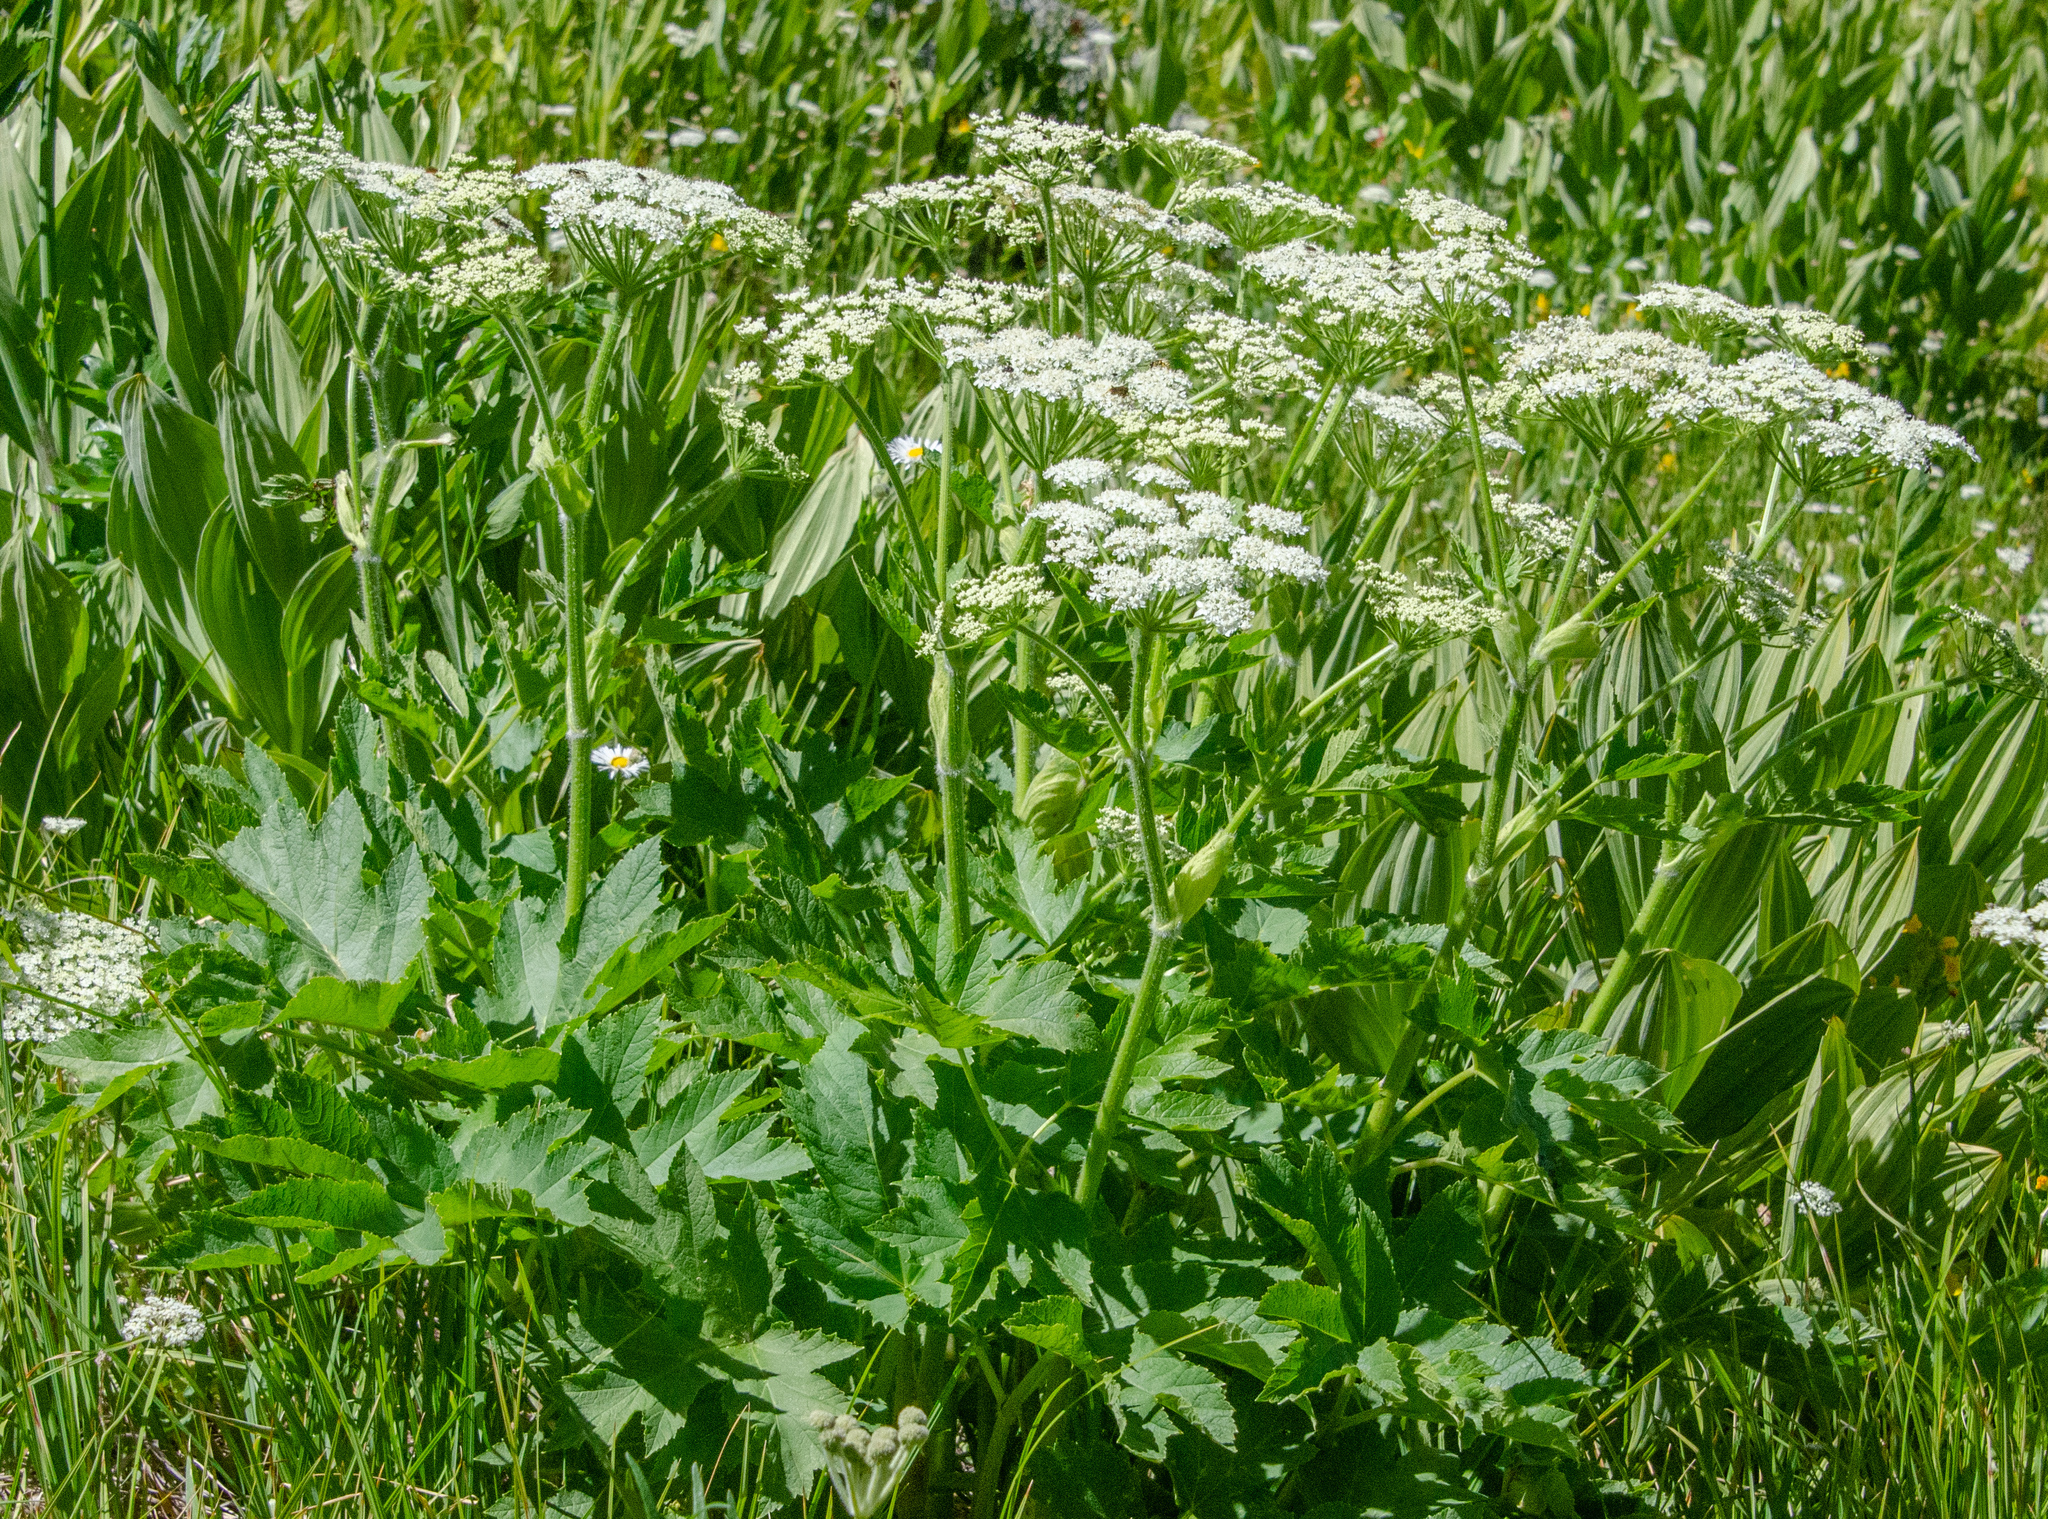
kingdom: Plantae
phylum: Tracheophyta
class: Magnoliopsida
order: Apiales
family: Apiaceae
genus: Heracleum
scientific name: Heracleum maximum
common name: American cow parsnip
